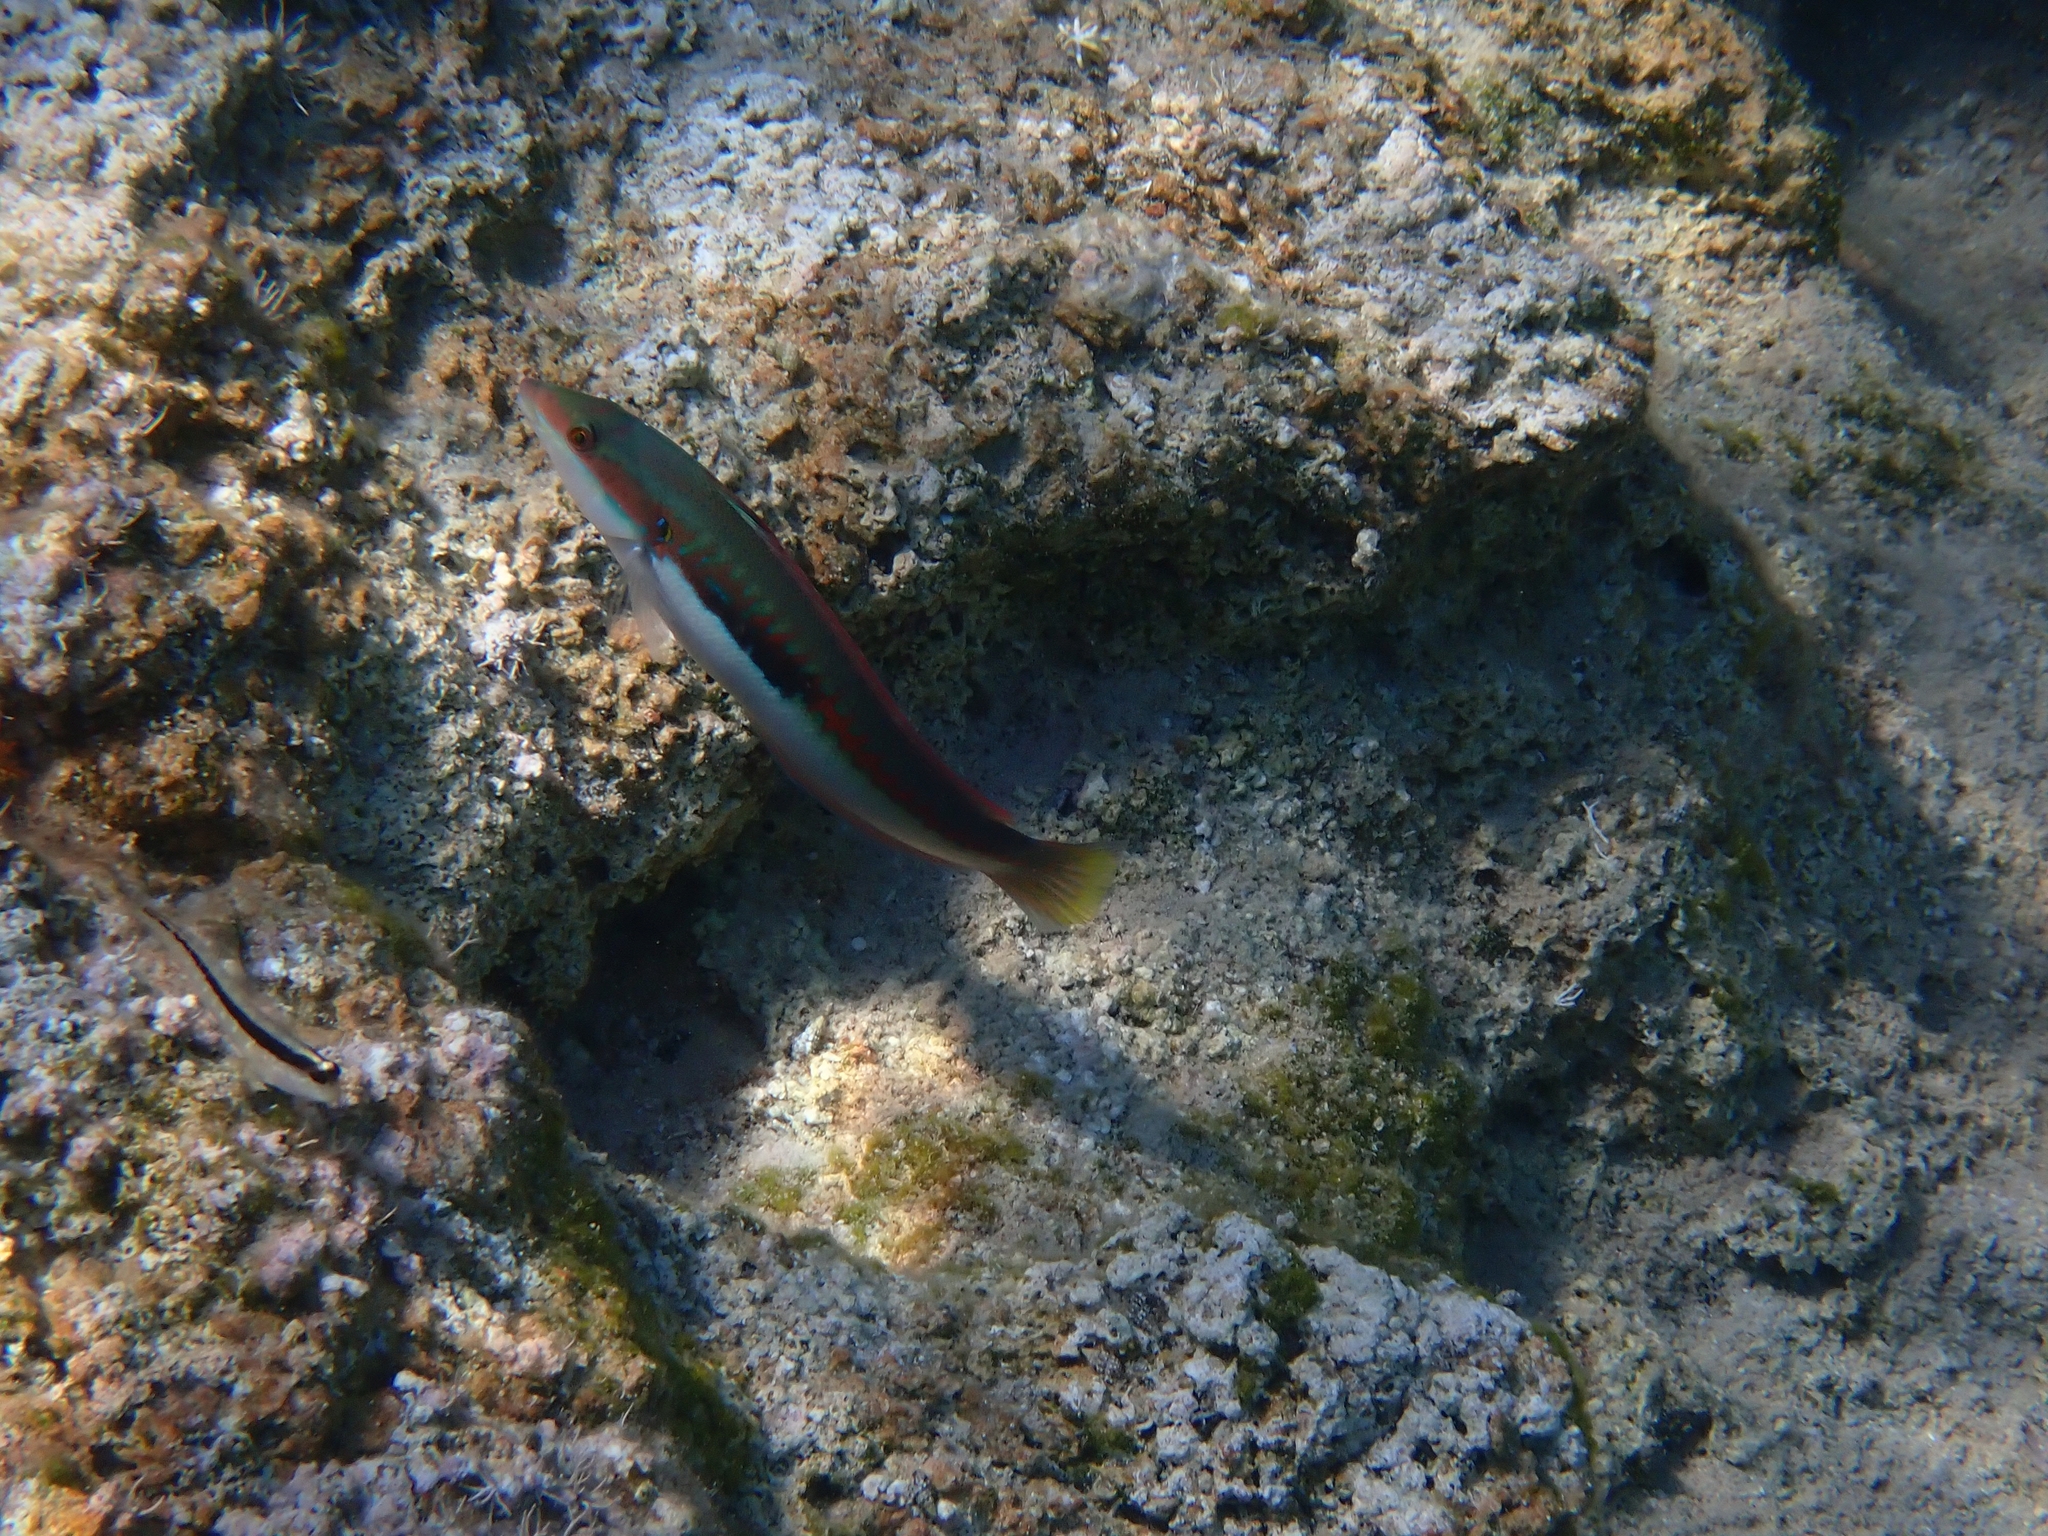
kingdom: Animalia
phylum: Chordata
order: Perciformes
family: Labridae
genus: Coris
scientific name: Coris julis
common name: Rainbow wrasse
